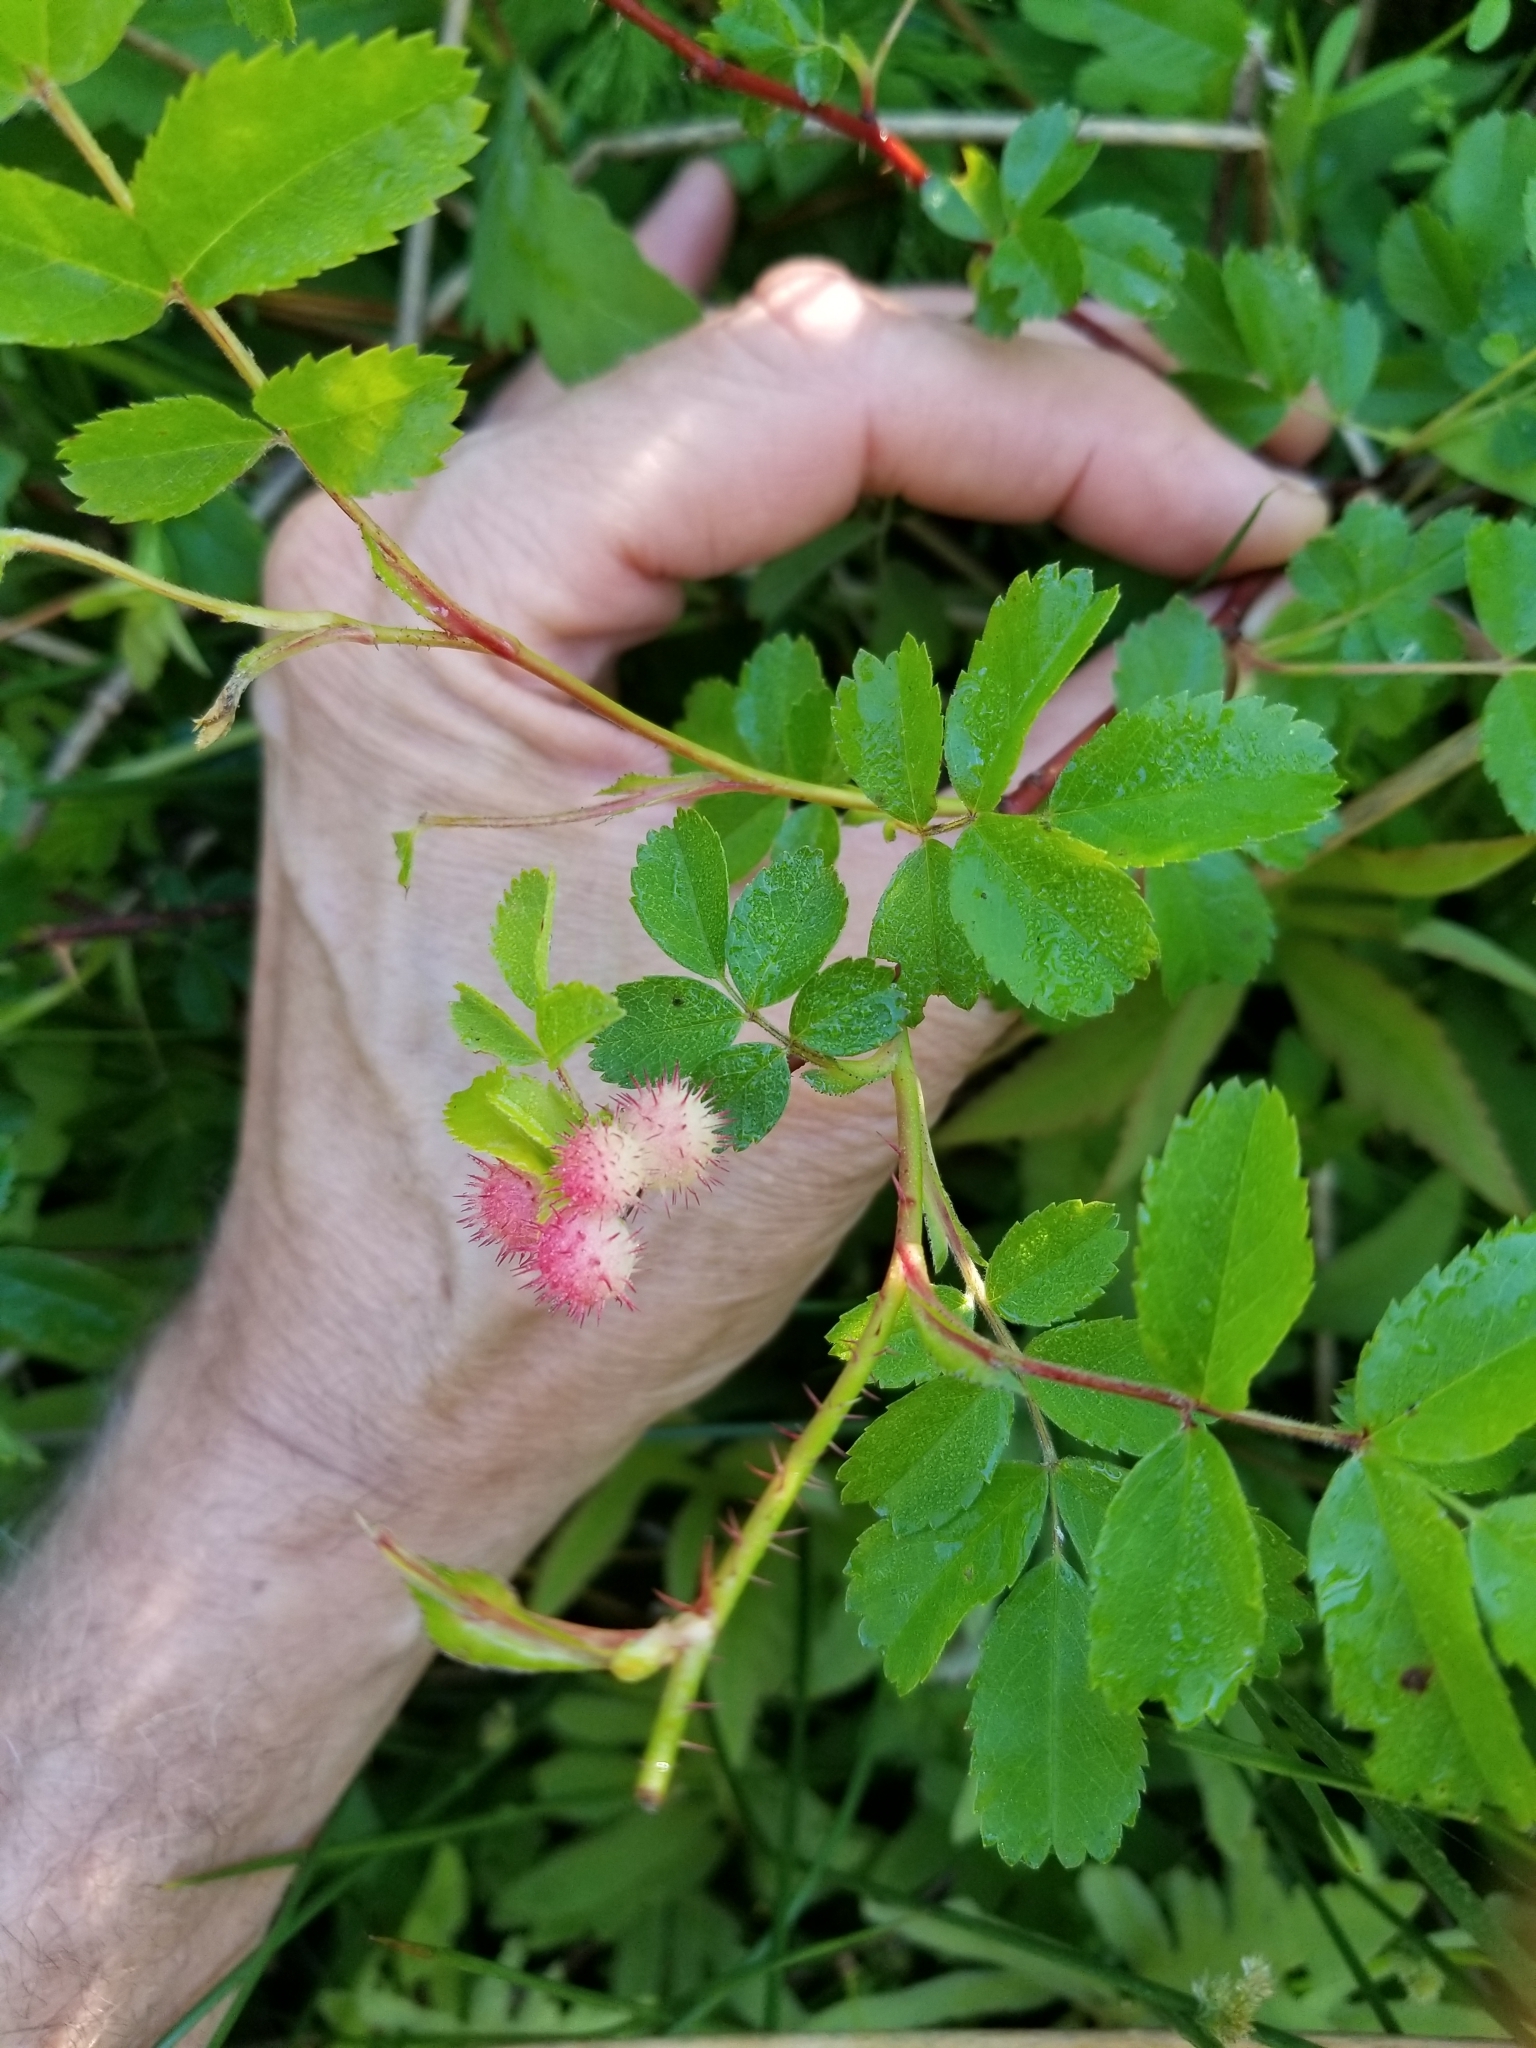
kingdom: Animalia
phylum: Arthropoda
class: Insecta
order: Hymenoptera
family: Cynipidae
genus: Diplolepis
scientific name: Diplolepis polita
